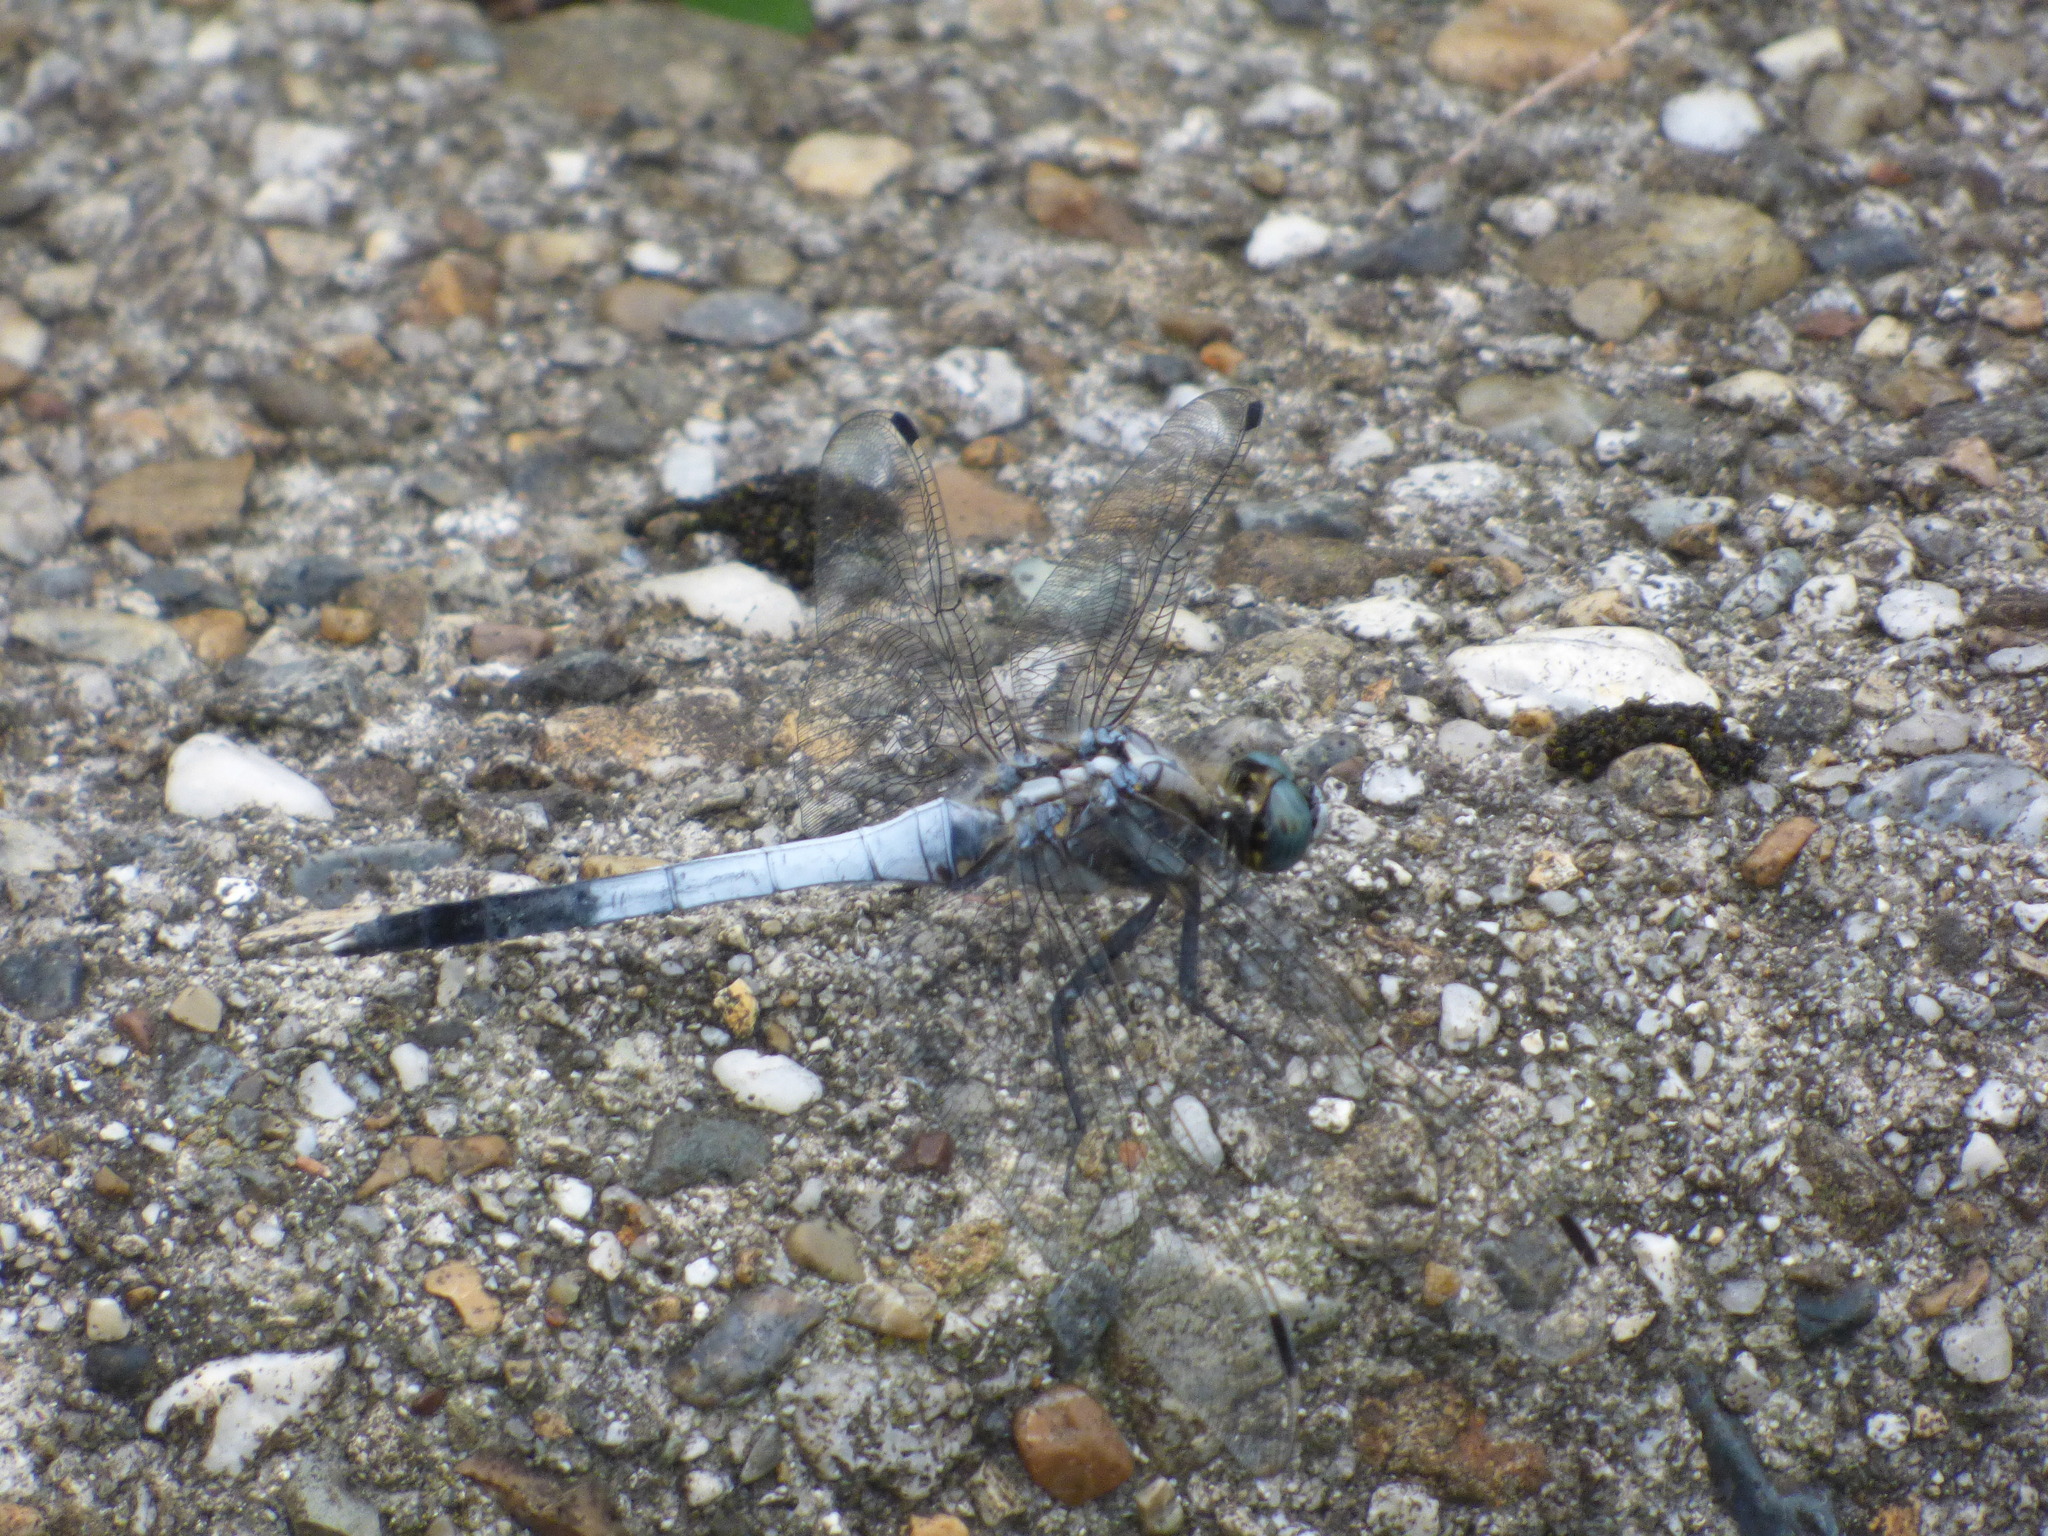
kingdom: Animalia
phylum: Arthropoda
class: Insecta
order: Odonata
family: Libellulidae
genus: Orthetrum
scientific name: Orthetrum albistylum
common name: White-tailed skimmer
